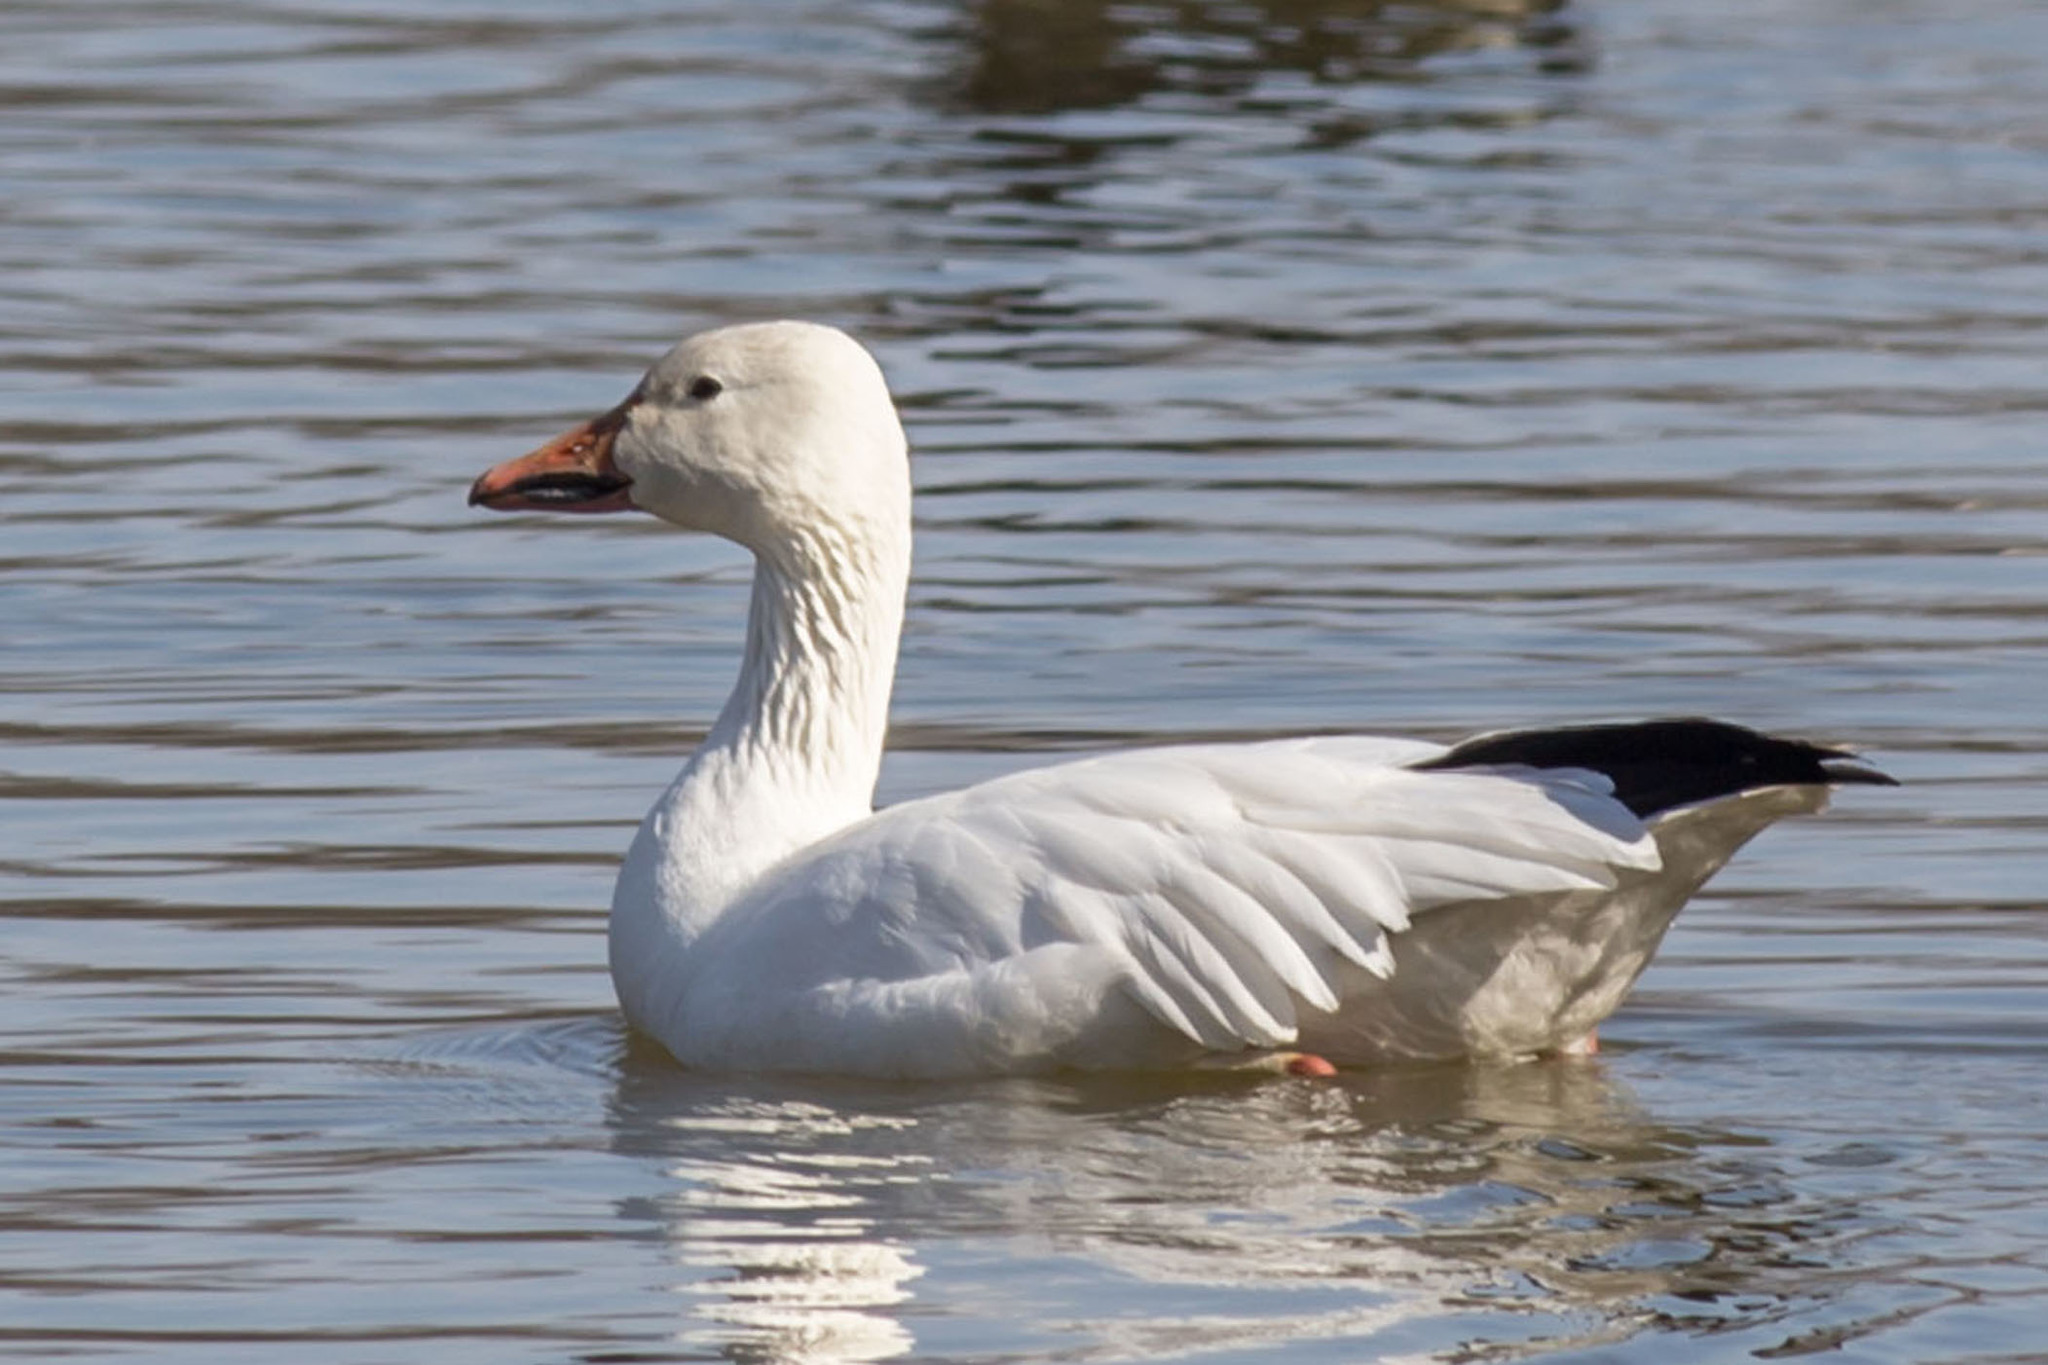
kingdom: Animalia
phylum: Chordata
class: Aves
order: Anseriformes
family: Anatidae
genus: Anser
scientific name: Anser caerulescens
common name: Snow goose
